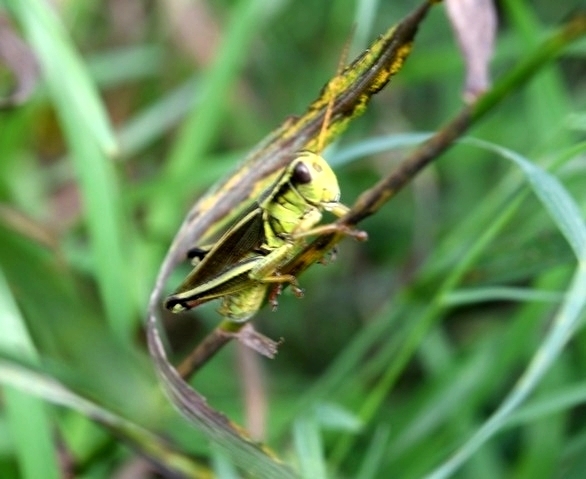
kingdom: Animalia
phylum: Arthropoda
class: Insecta
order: Orthoptera
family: Acrididae
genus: Melanoplus
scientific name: Melanoplus bivittatus
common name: Two-striped grasshopper
